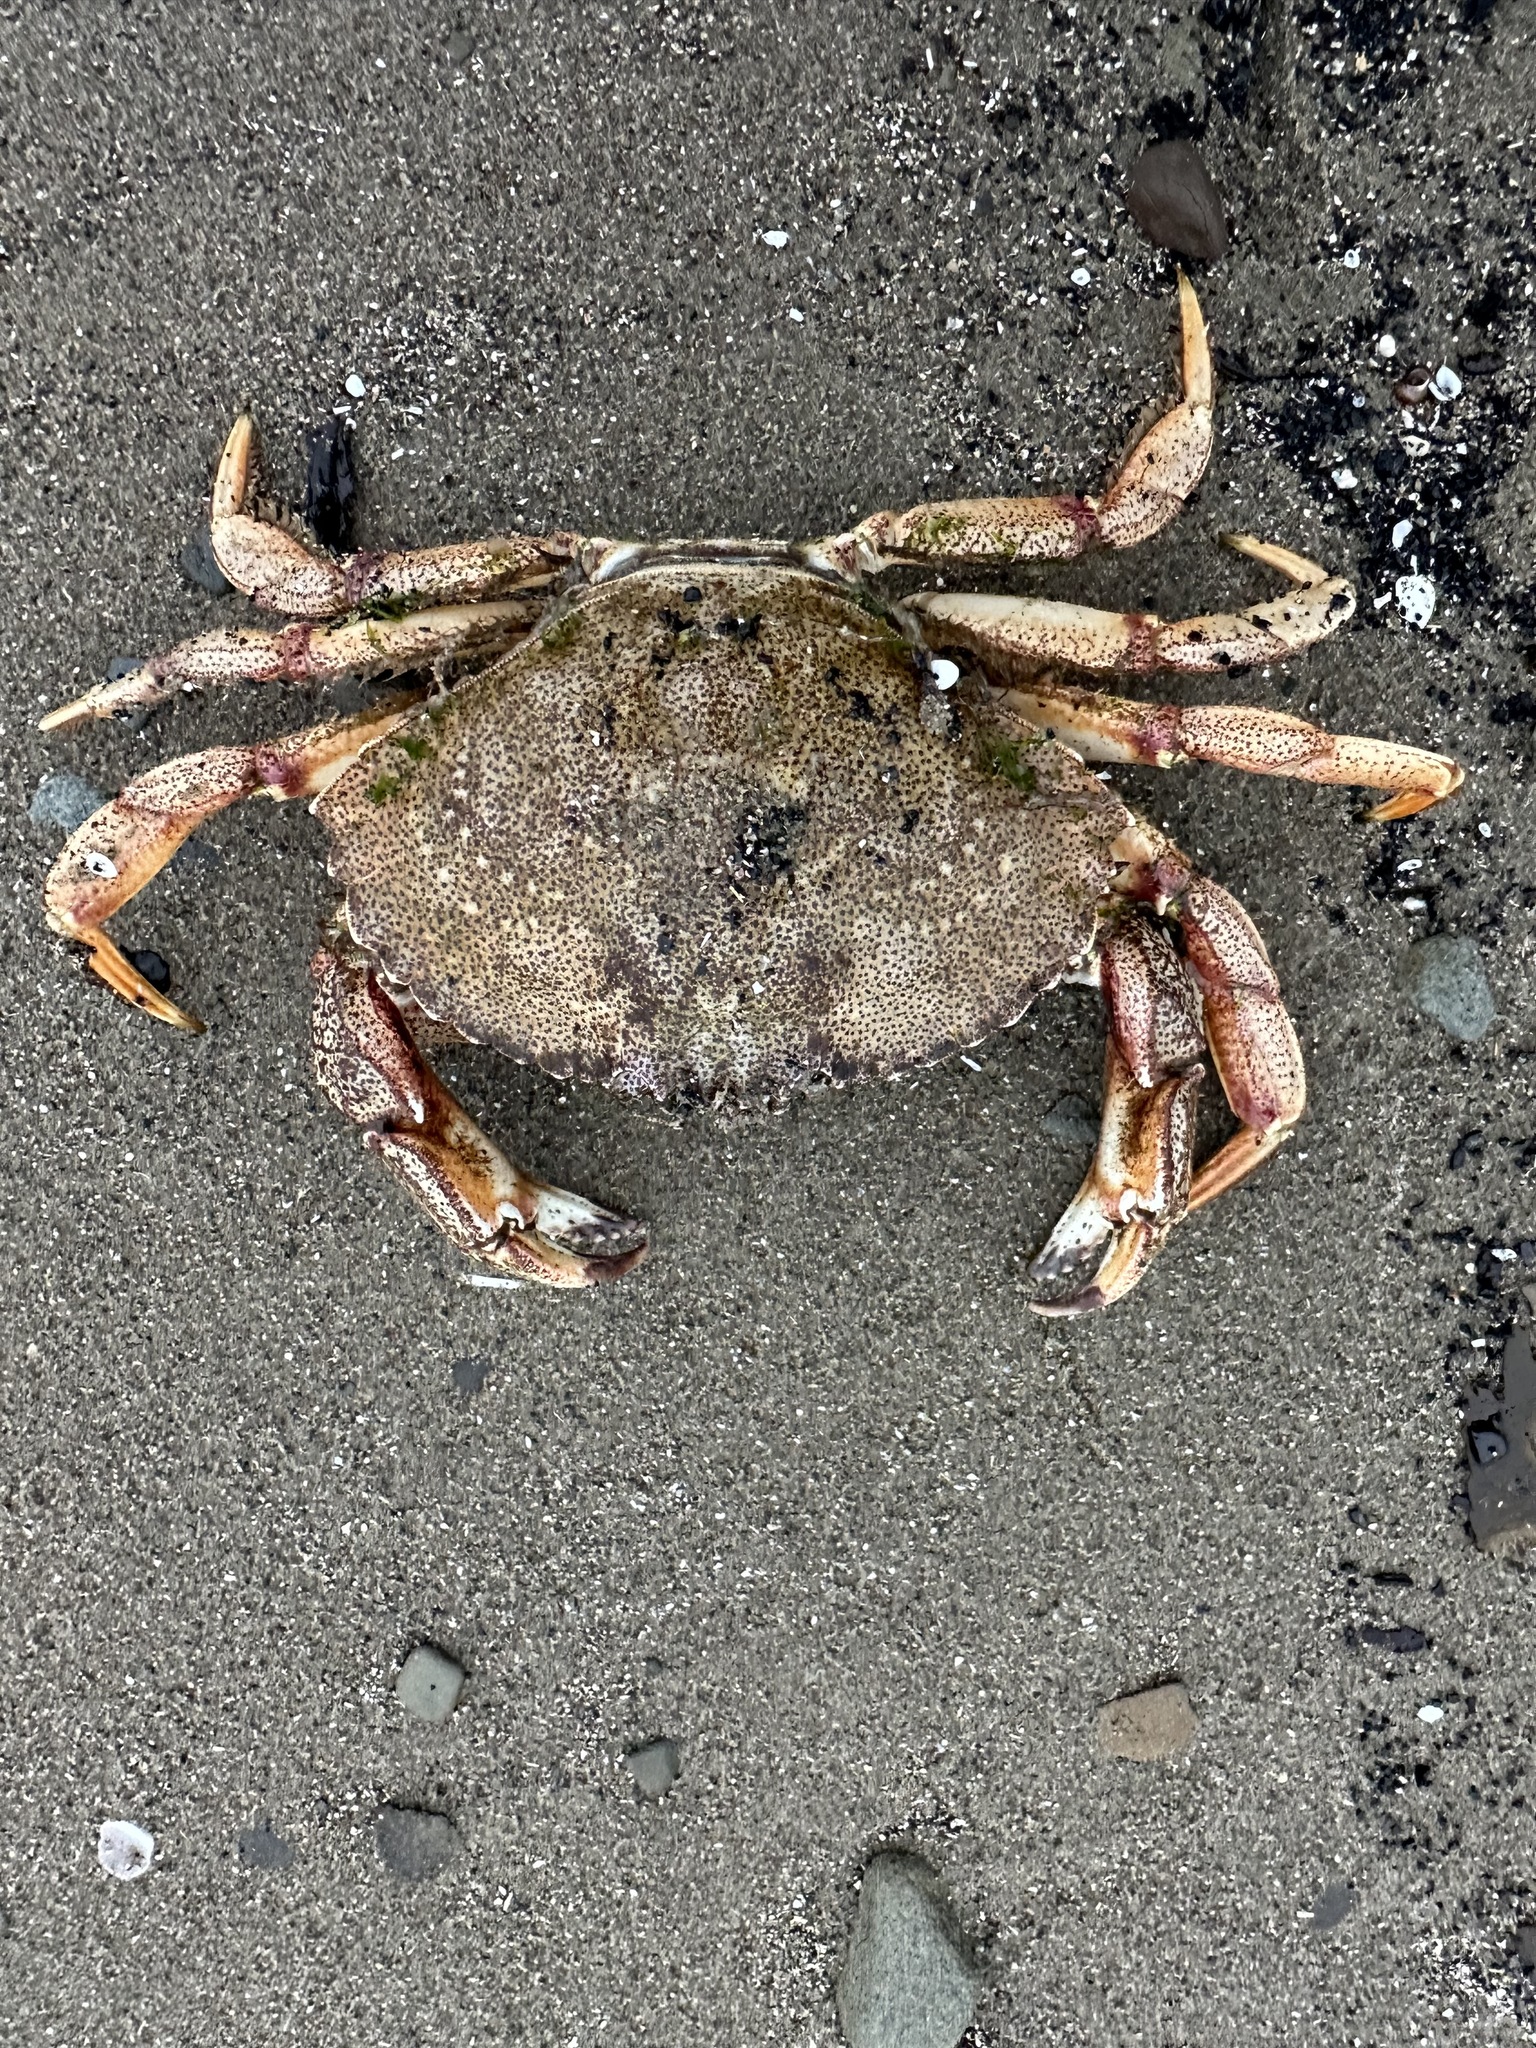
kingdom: Animalia
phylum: Arthropoda
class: Malacostraca
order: Decapoda
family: Cancridae
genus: Cancer
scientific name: Cancer irroratus
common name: Atlantic rock crab
